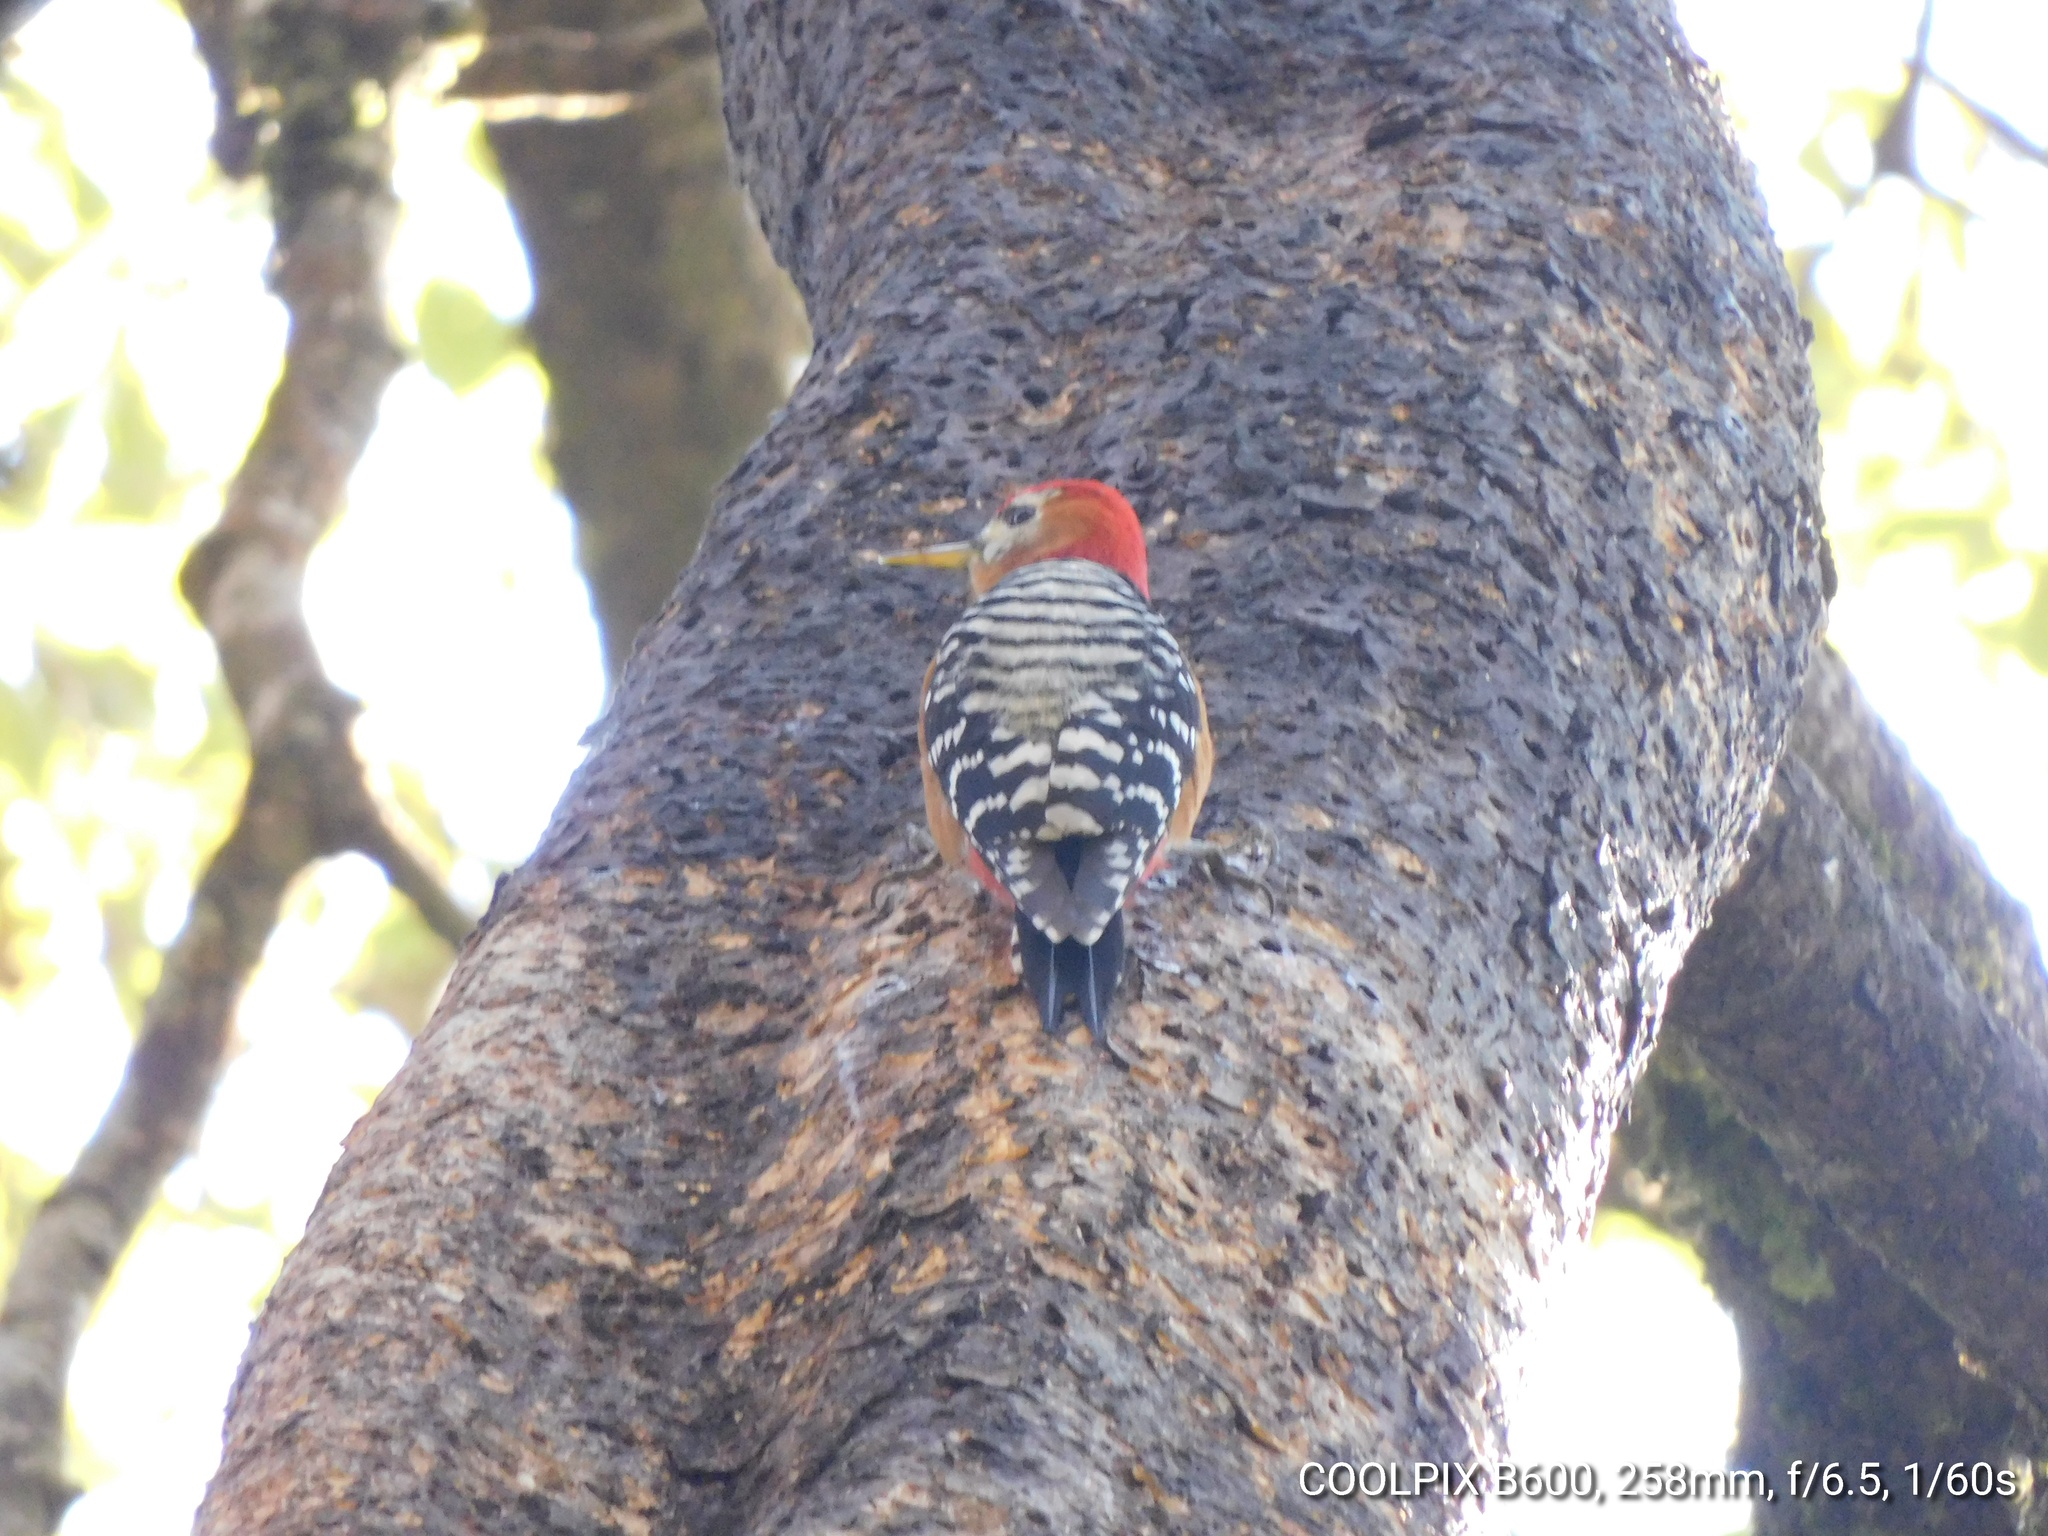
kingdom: Animalia
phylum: Chordata
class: Aves
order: Piciformes
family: Picidae
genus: Dendrocopos
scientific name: Dendrocopos hyperythrus
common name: Rufous-bellied woodpecker
